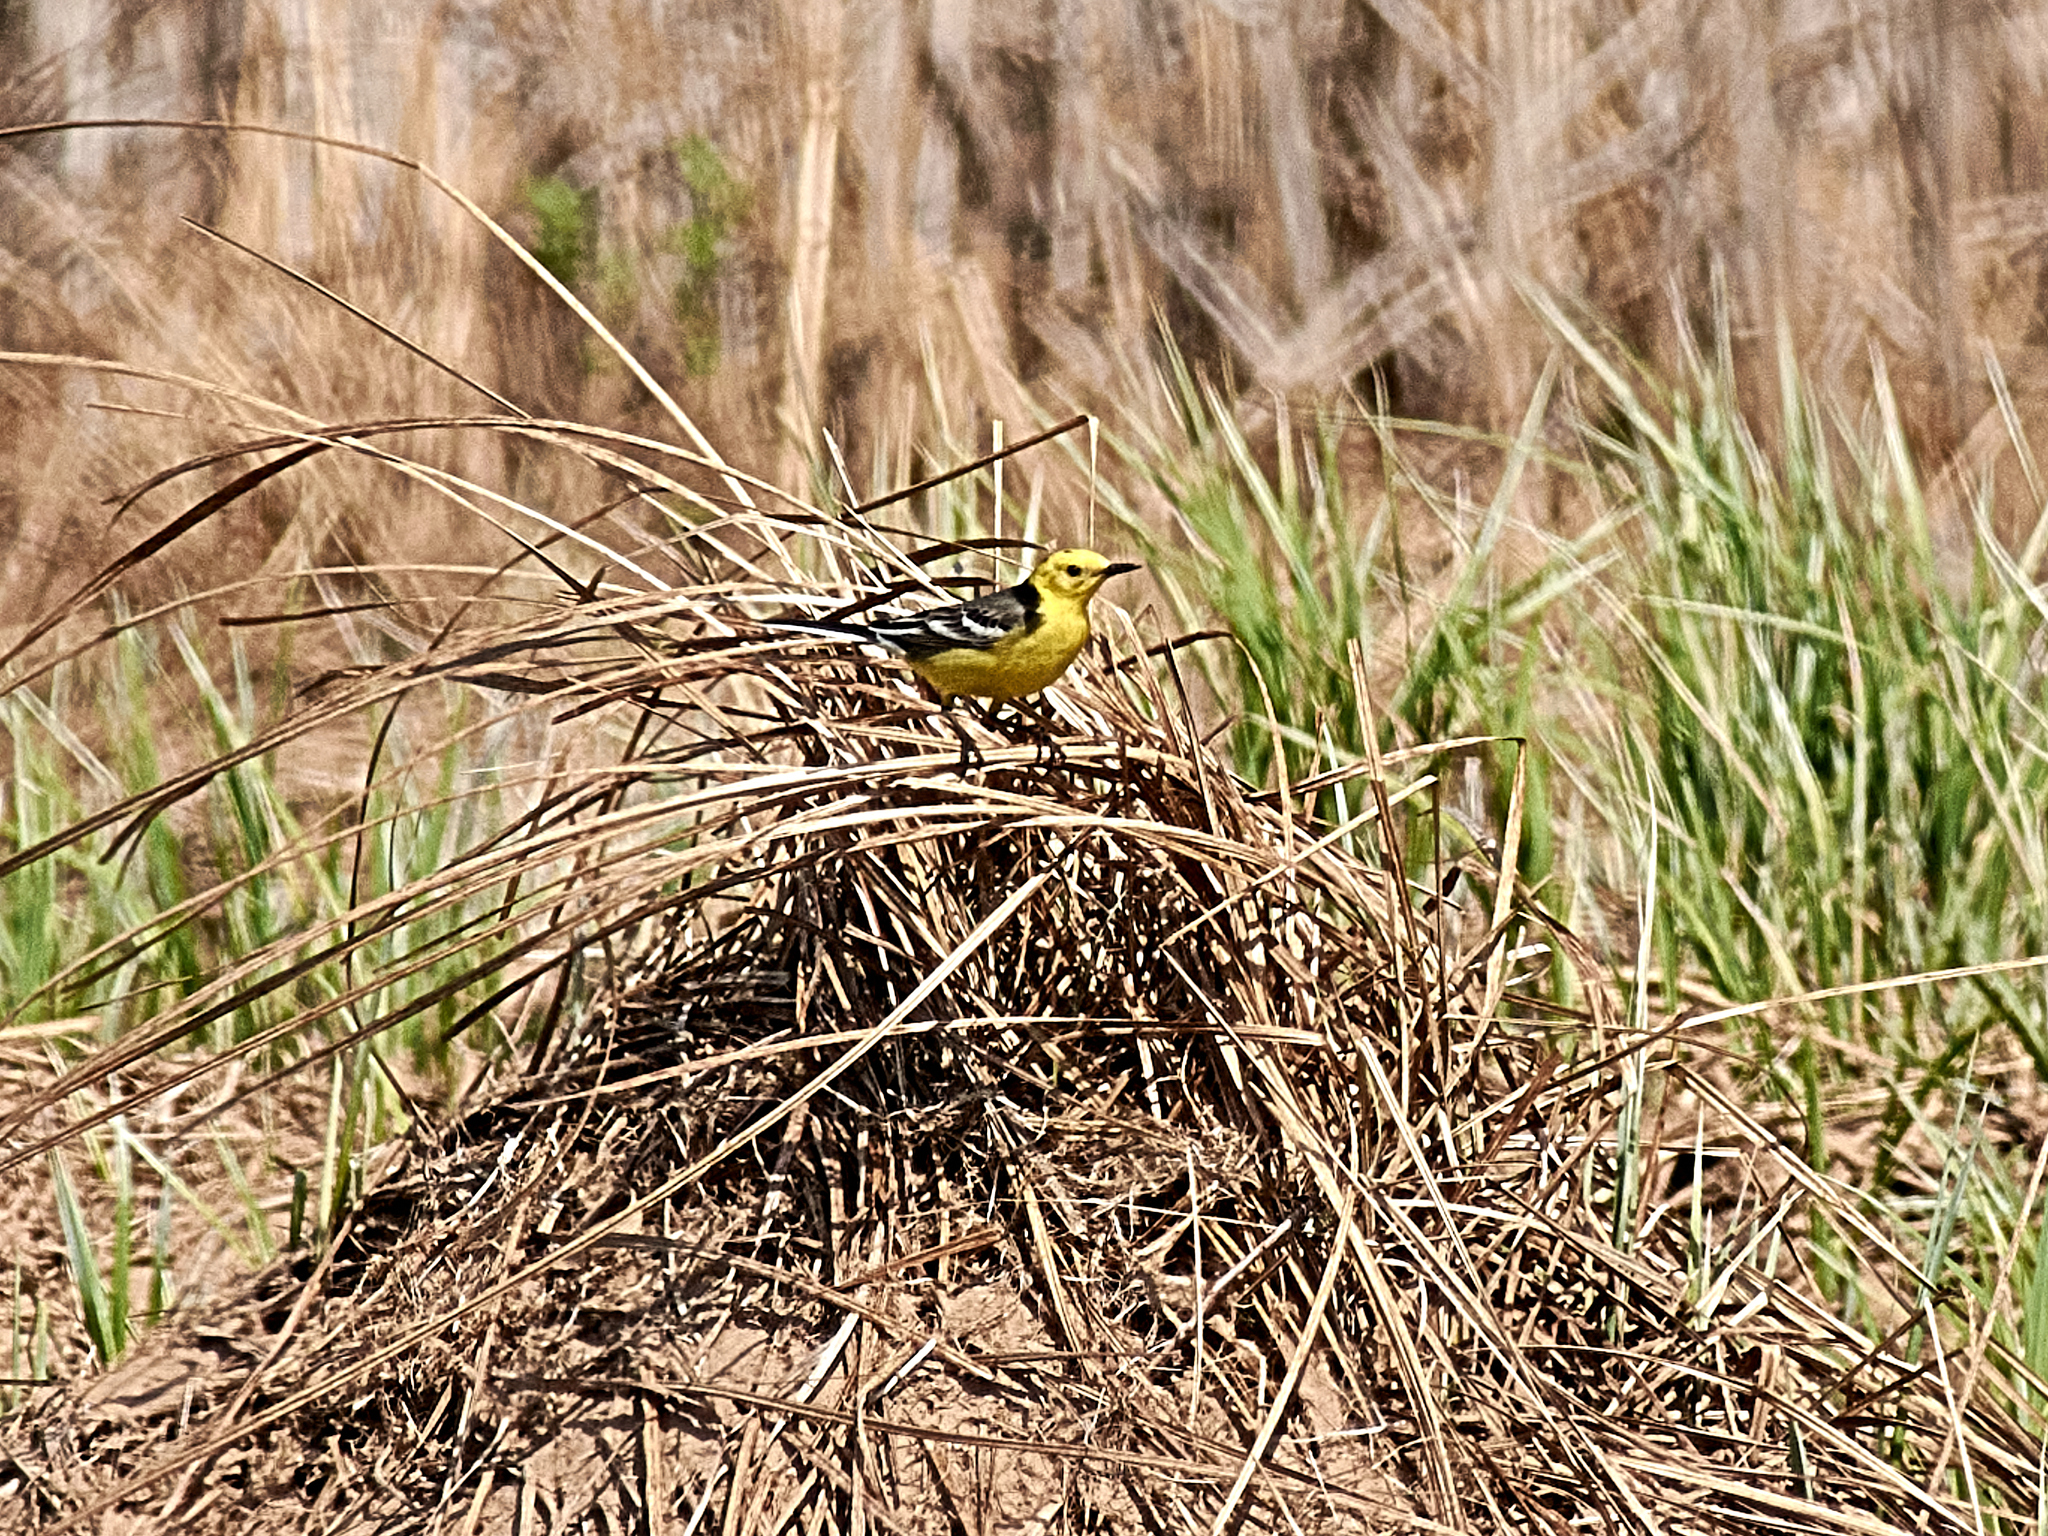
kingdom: Animalia
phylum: Chordata
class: Aves
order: Passeriformes
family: Motacillidae
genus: Motacilla
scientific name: Motacilla citreola
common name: Citrine wagtail
